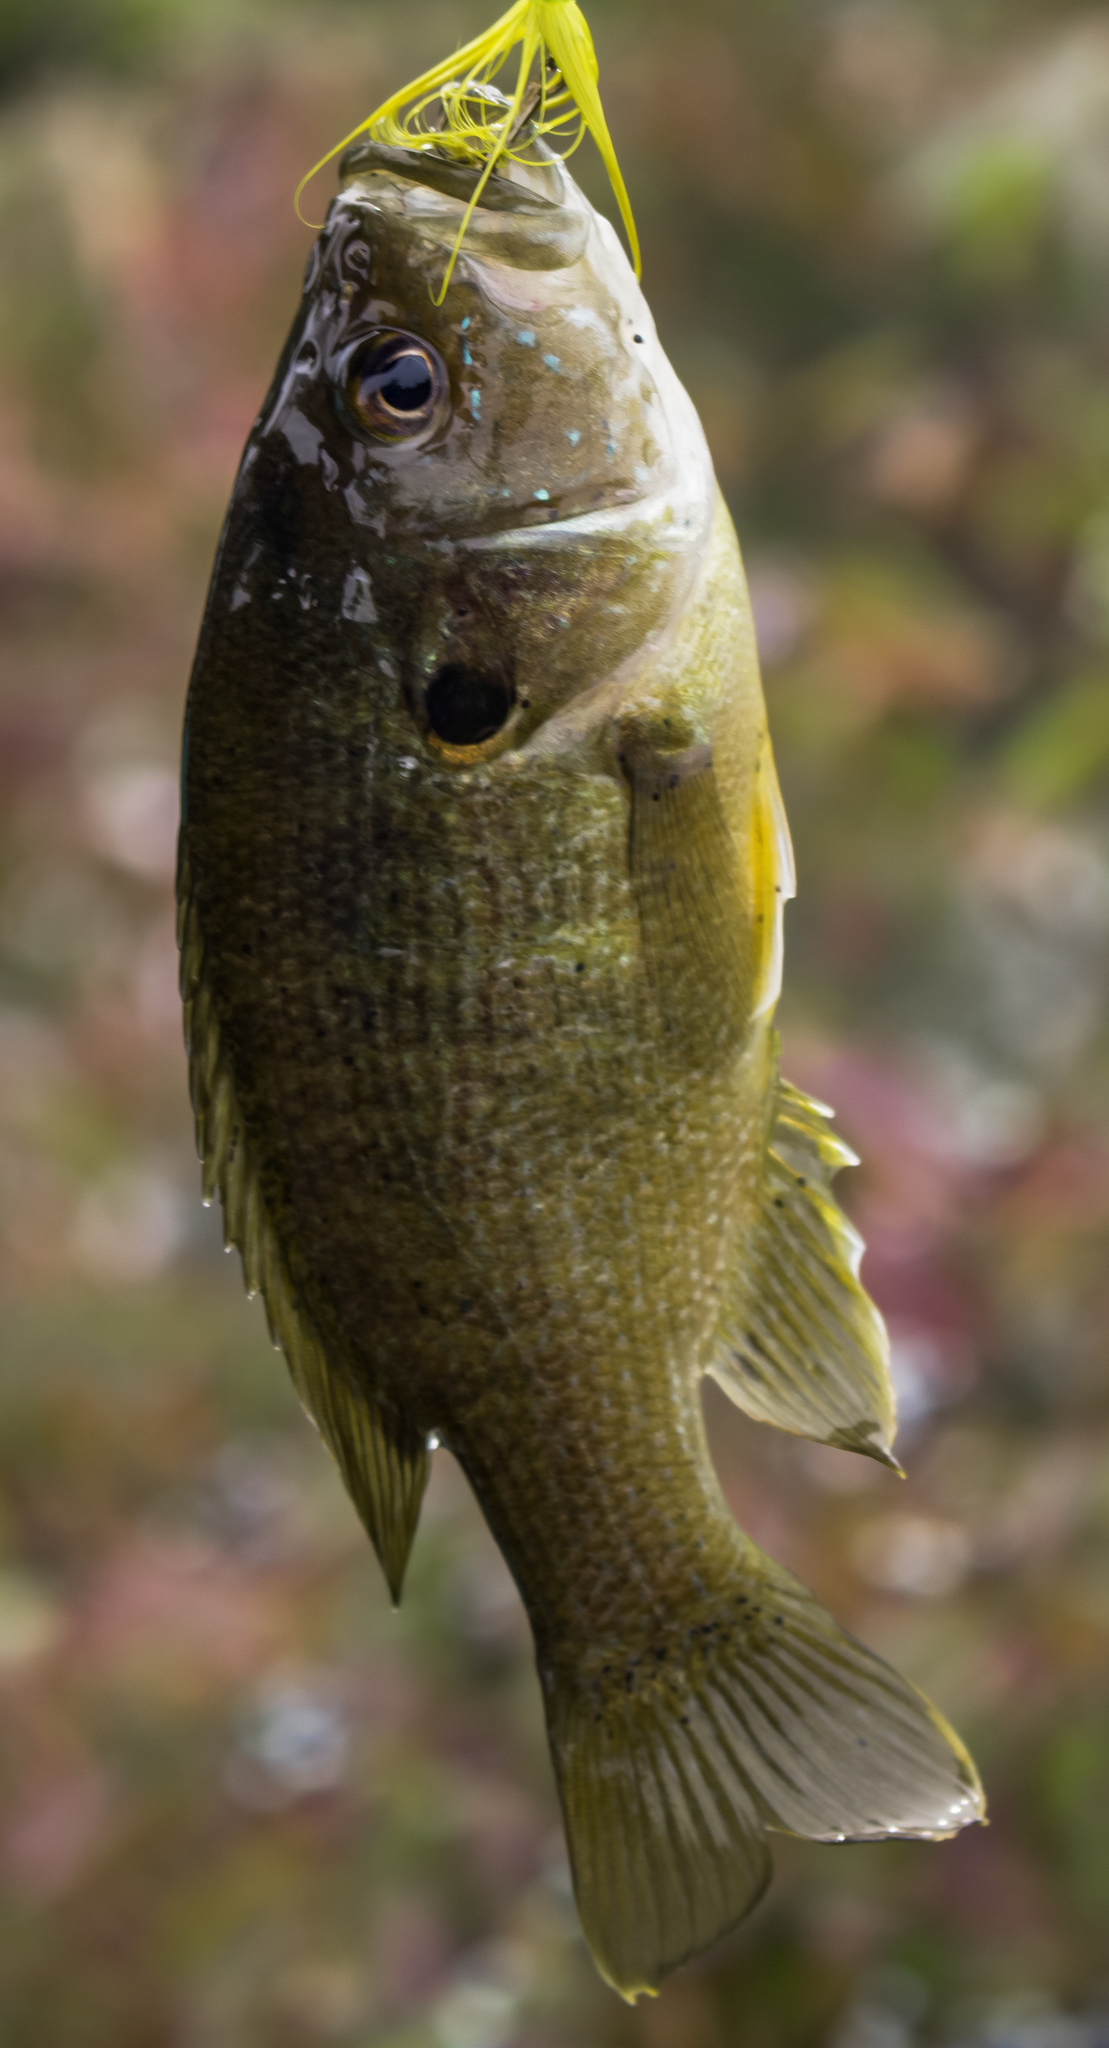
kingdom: Animalia
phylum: Chordata
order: Perciformes
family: Centrarchidae
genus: Lepomis
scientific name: Lepomis cyanellus
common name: Green sunfish
